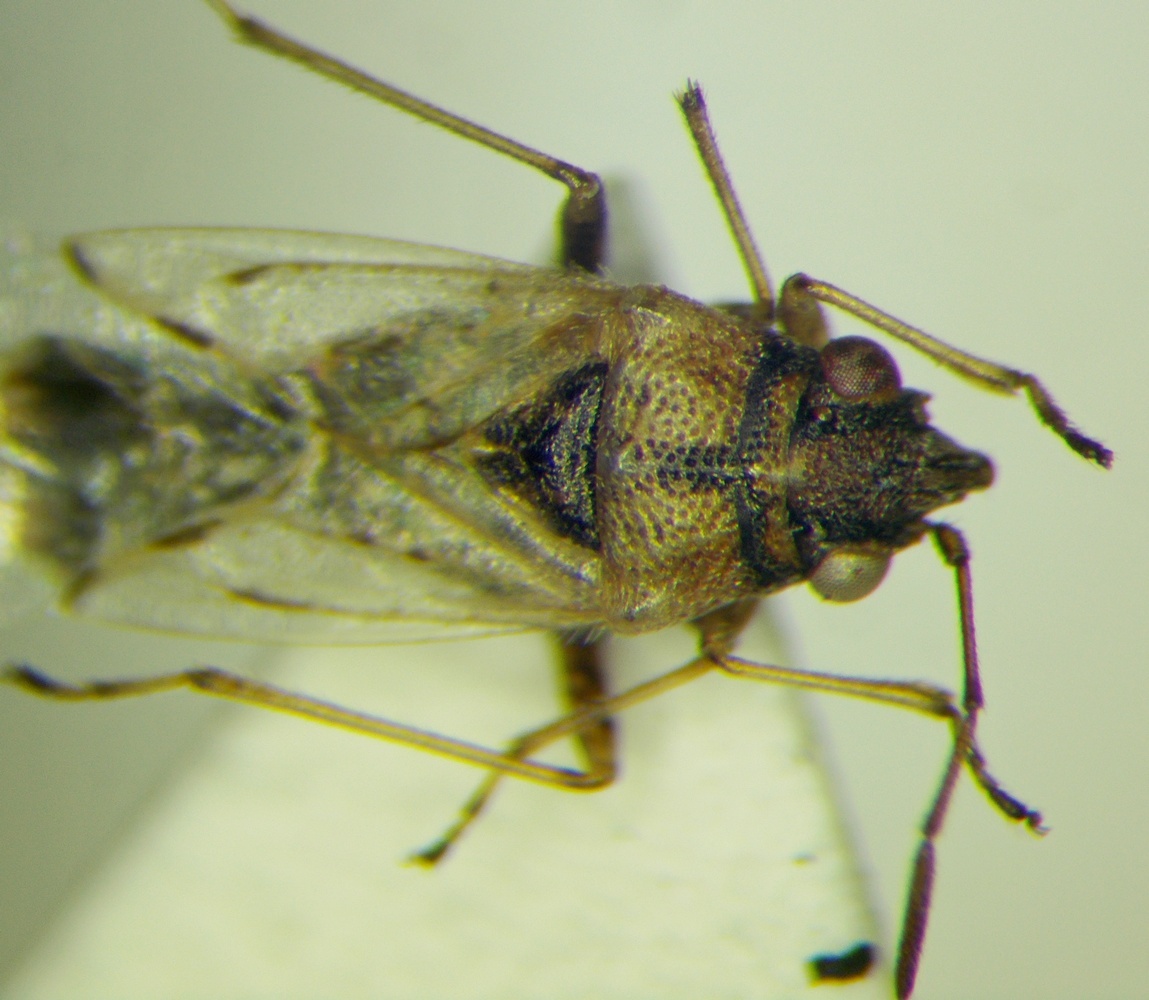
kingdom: Animalia
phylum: Arthropoda
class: Insecta
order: Hemiptera
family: Lygaeidae
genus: Nysius
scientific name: Nysius cymoides
